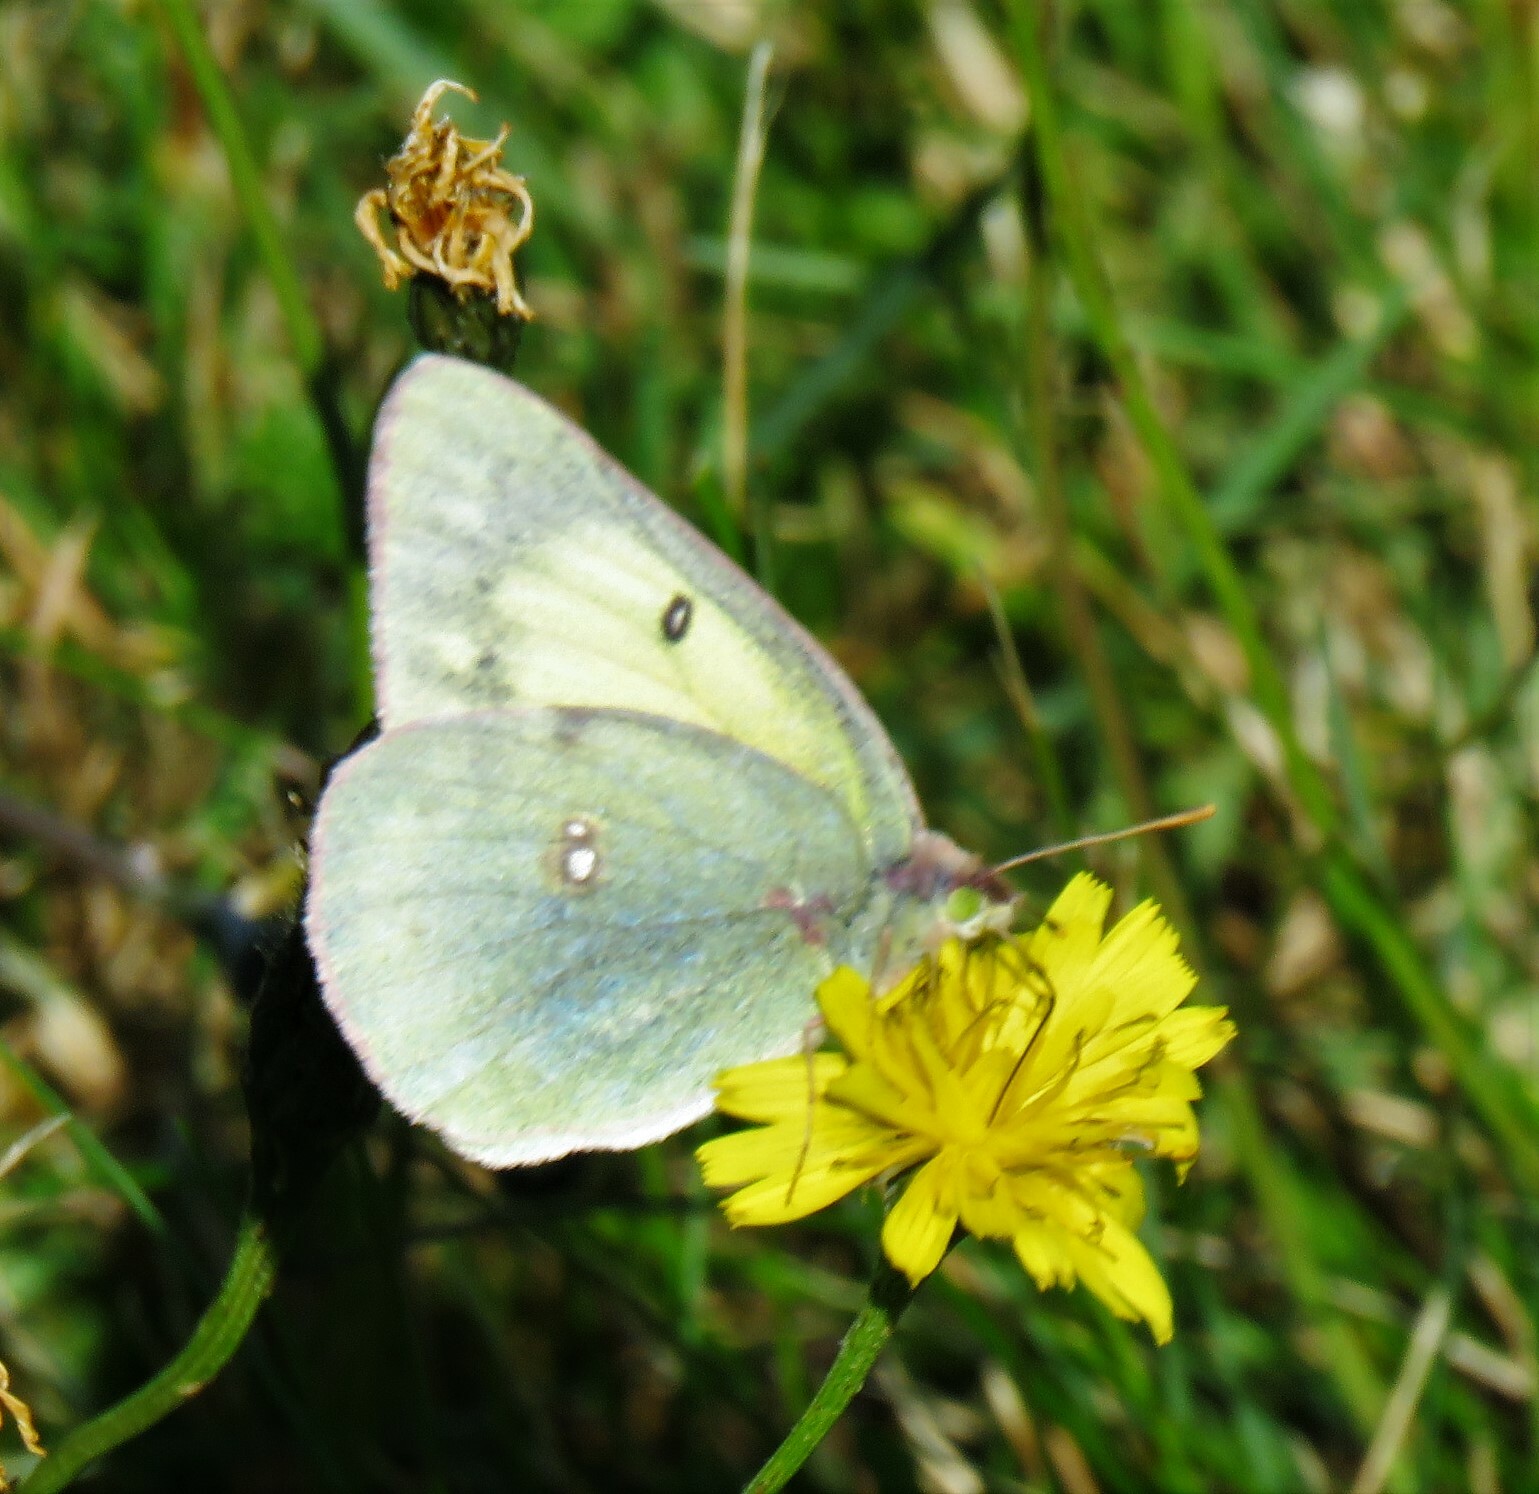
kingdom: Animalia
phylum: Arthropoda
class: Insecta
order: Lepidoptera
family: Pieridae
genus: Colias
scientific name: Colias philodice
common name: Clouded sulphur
